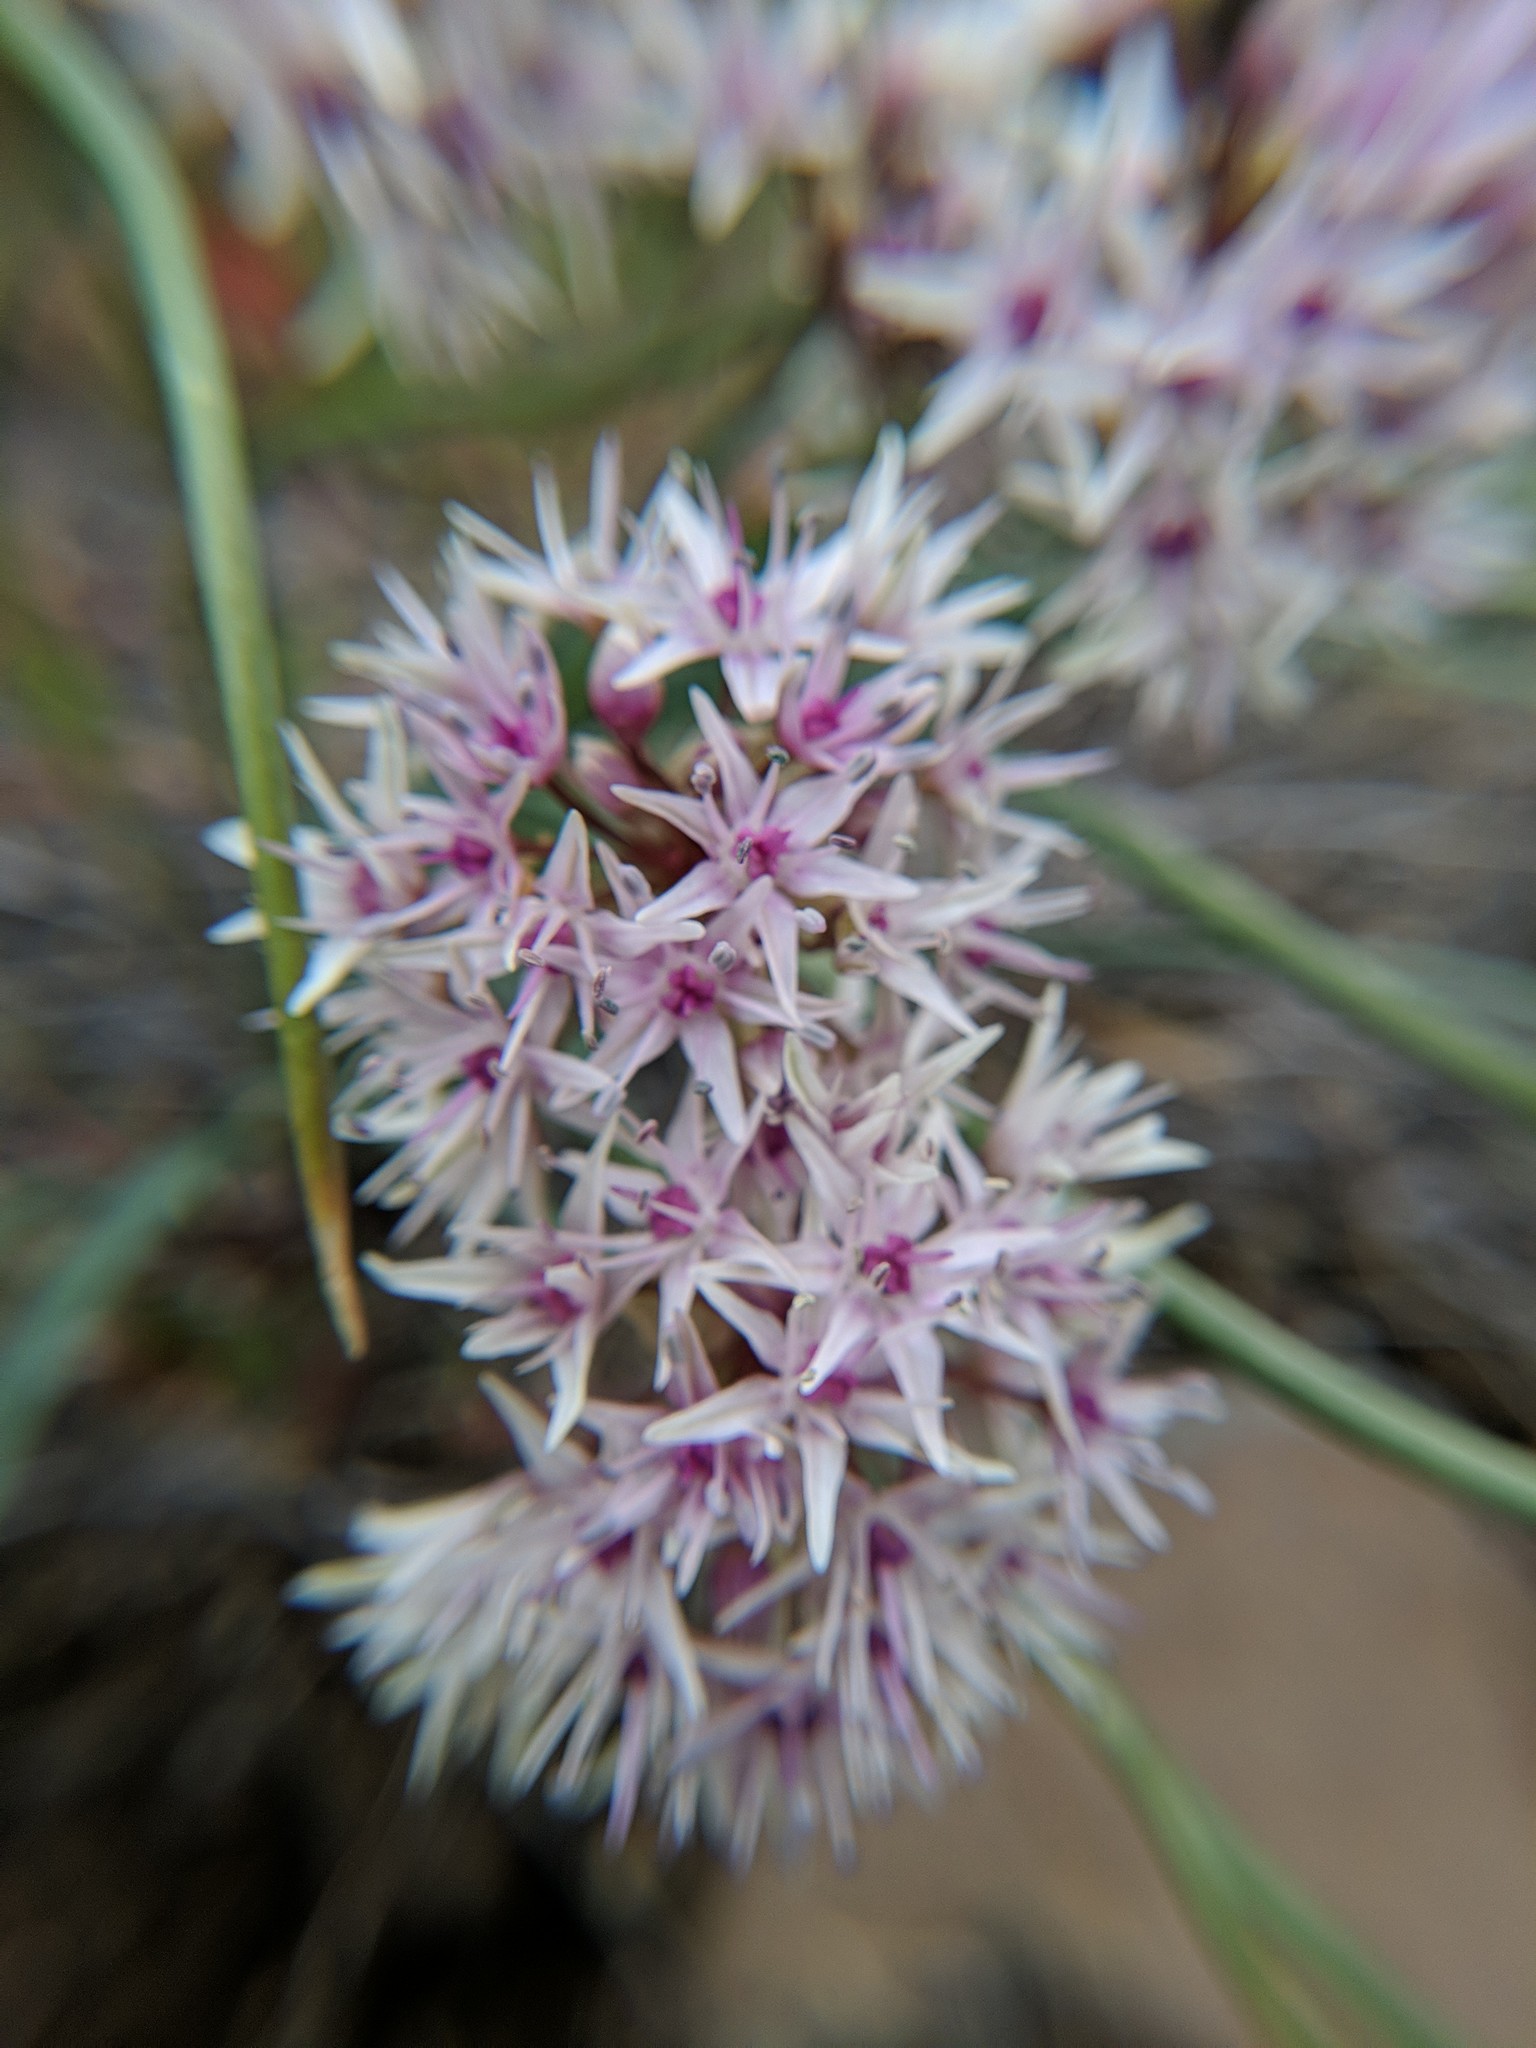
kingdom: Plantae
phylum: Tracheophyta
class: Liliopsida
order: Asparagales
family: Amaryllidaceae
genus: Allium
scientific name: Allium macrum
